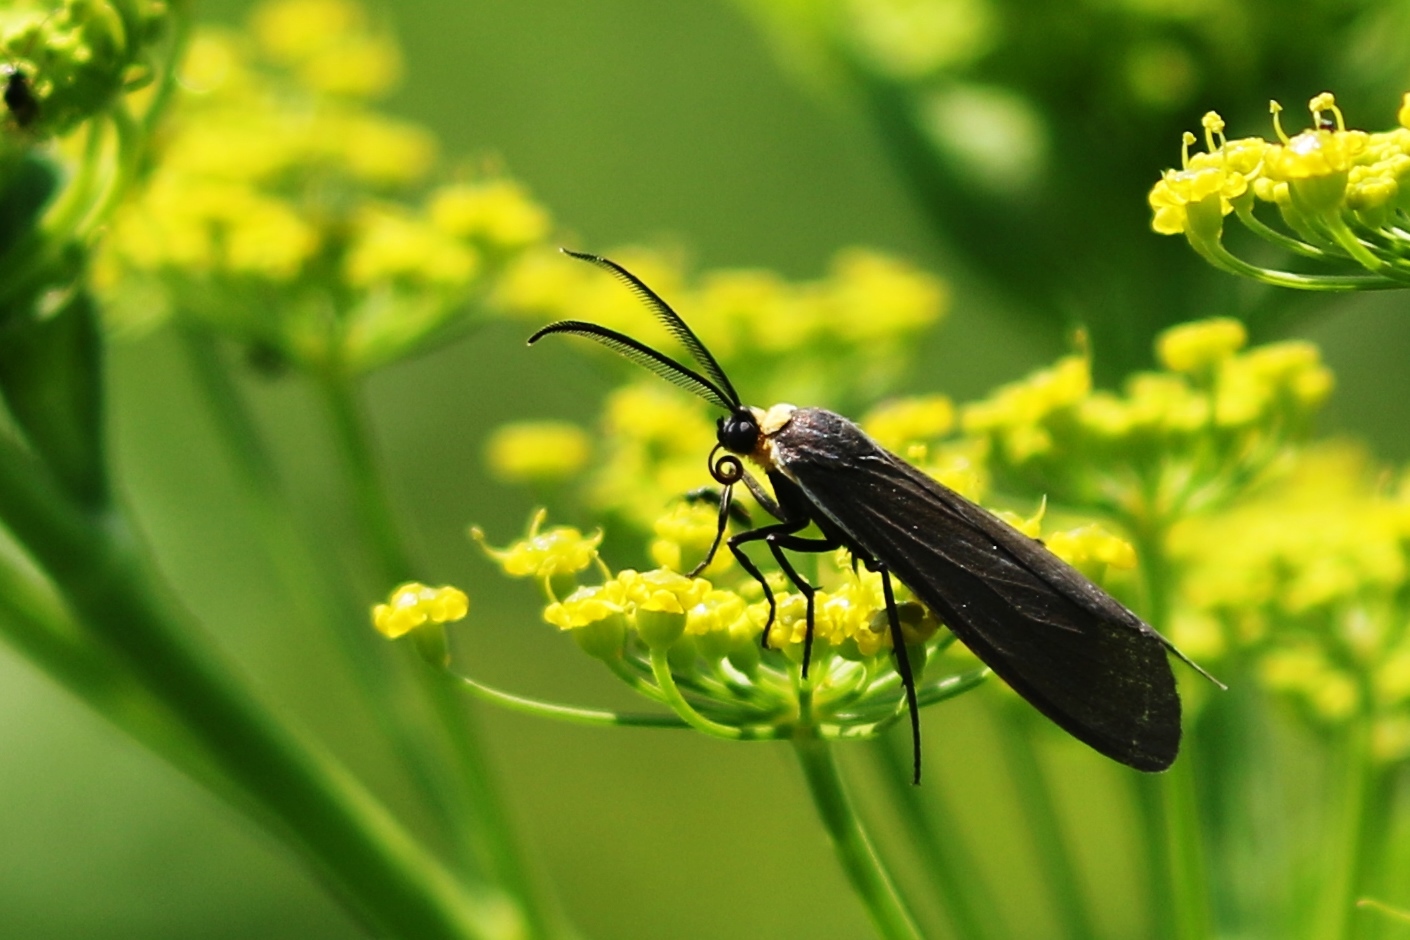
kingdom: Animalia
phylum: Arthropoda
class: Insecta
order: Lepidoptera
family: Erebidae
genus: Cisseps
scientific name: Cisseps fulvicollis
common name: Yellow-collared scape moth
